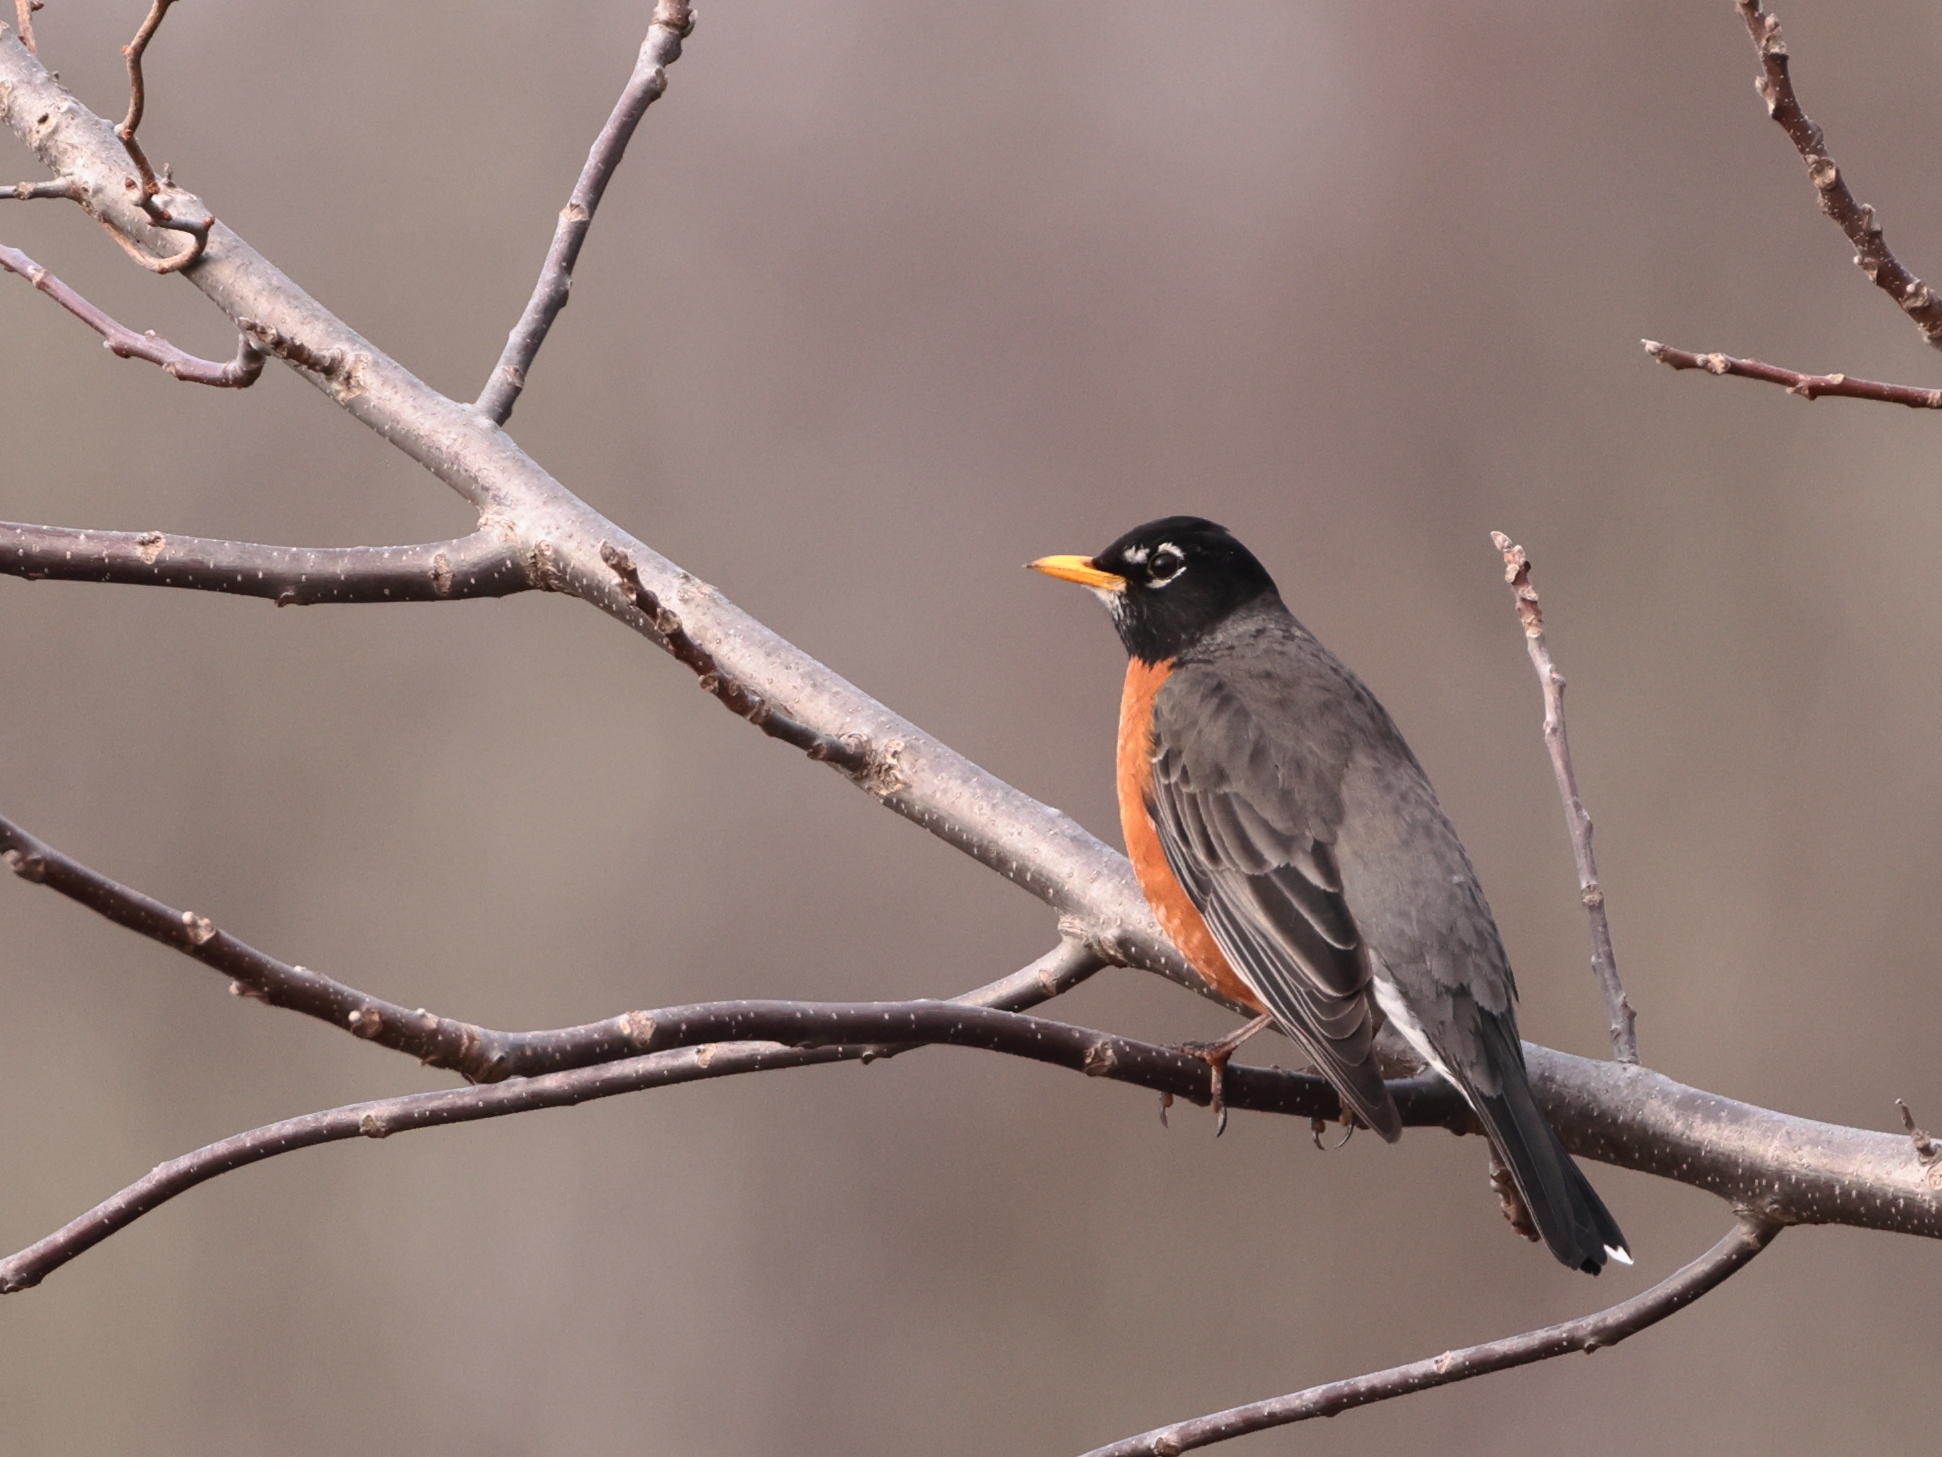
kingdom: Animalia
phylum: Chordata
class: Aves
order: Passeriformes
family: Turdidae
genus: Turdus
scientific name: Turdus migratorius
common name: American robin
